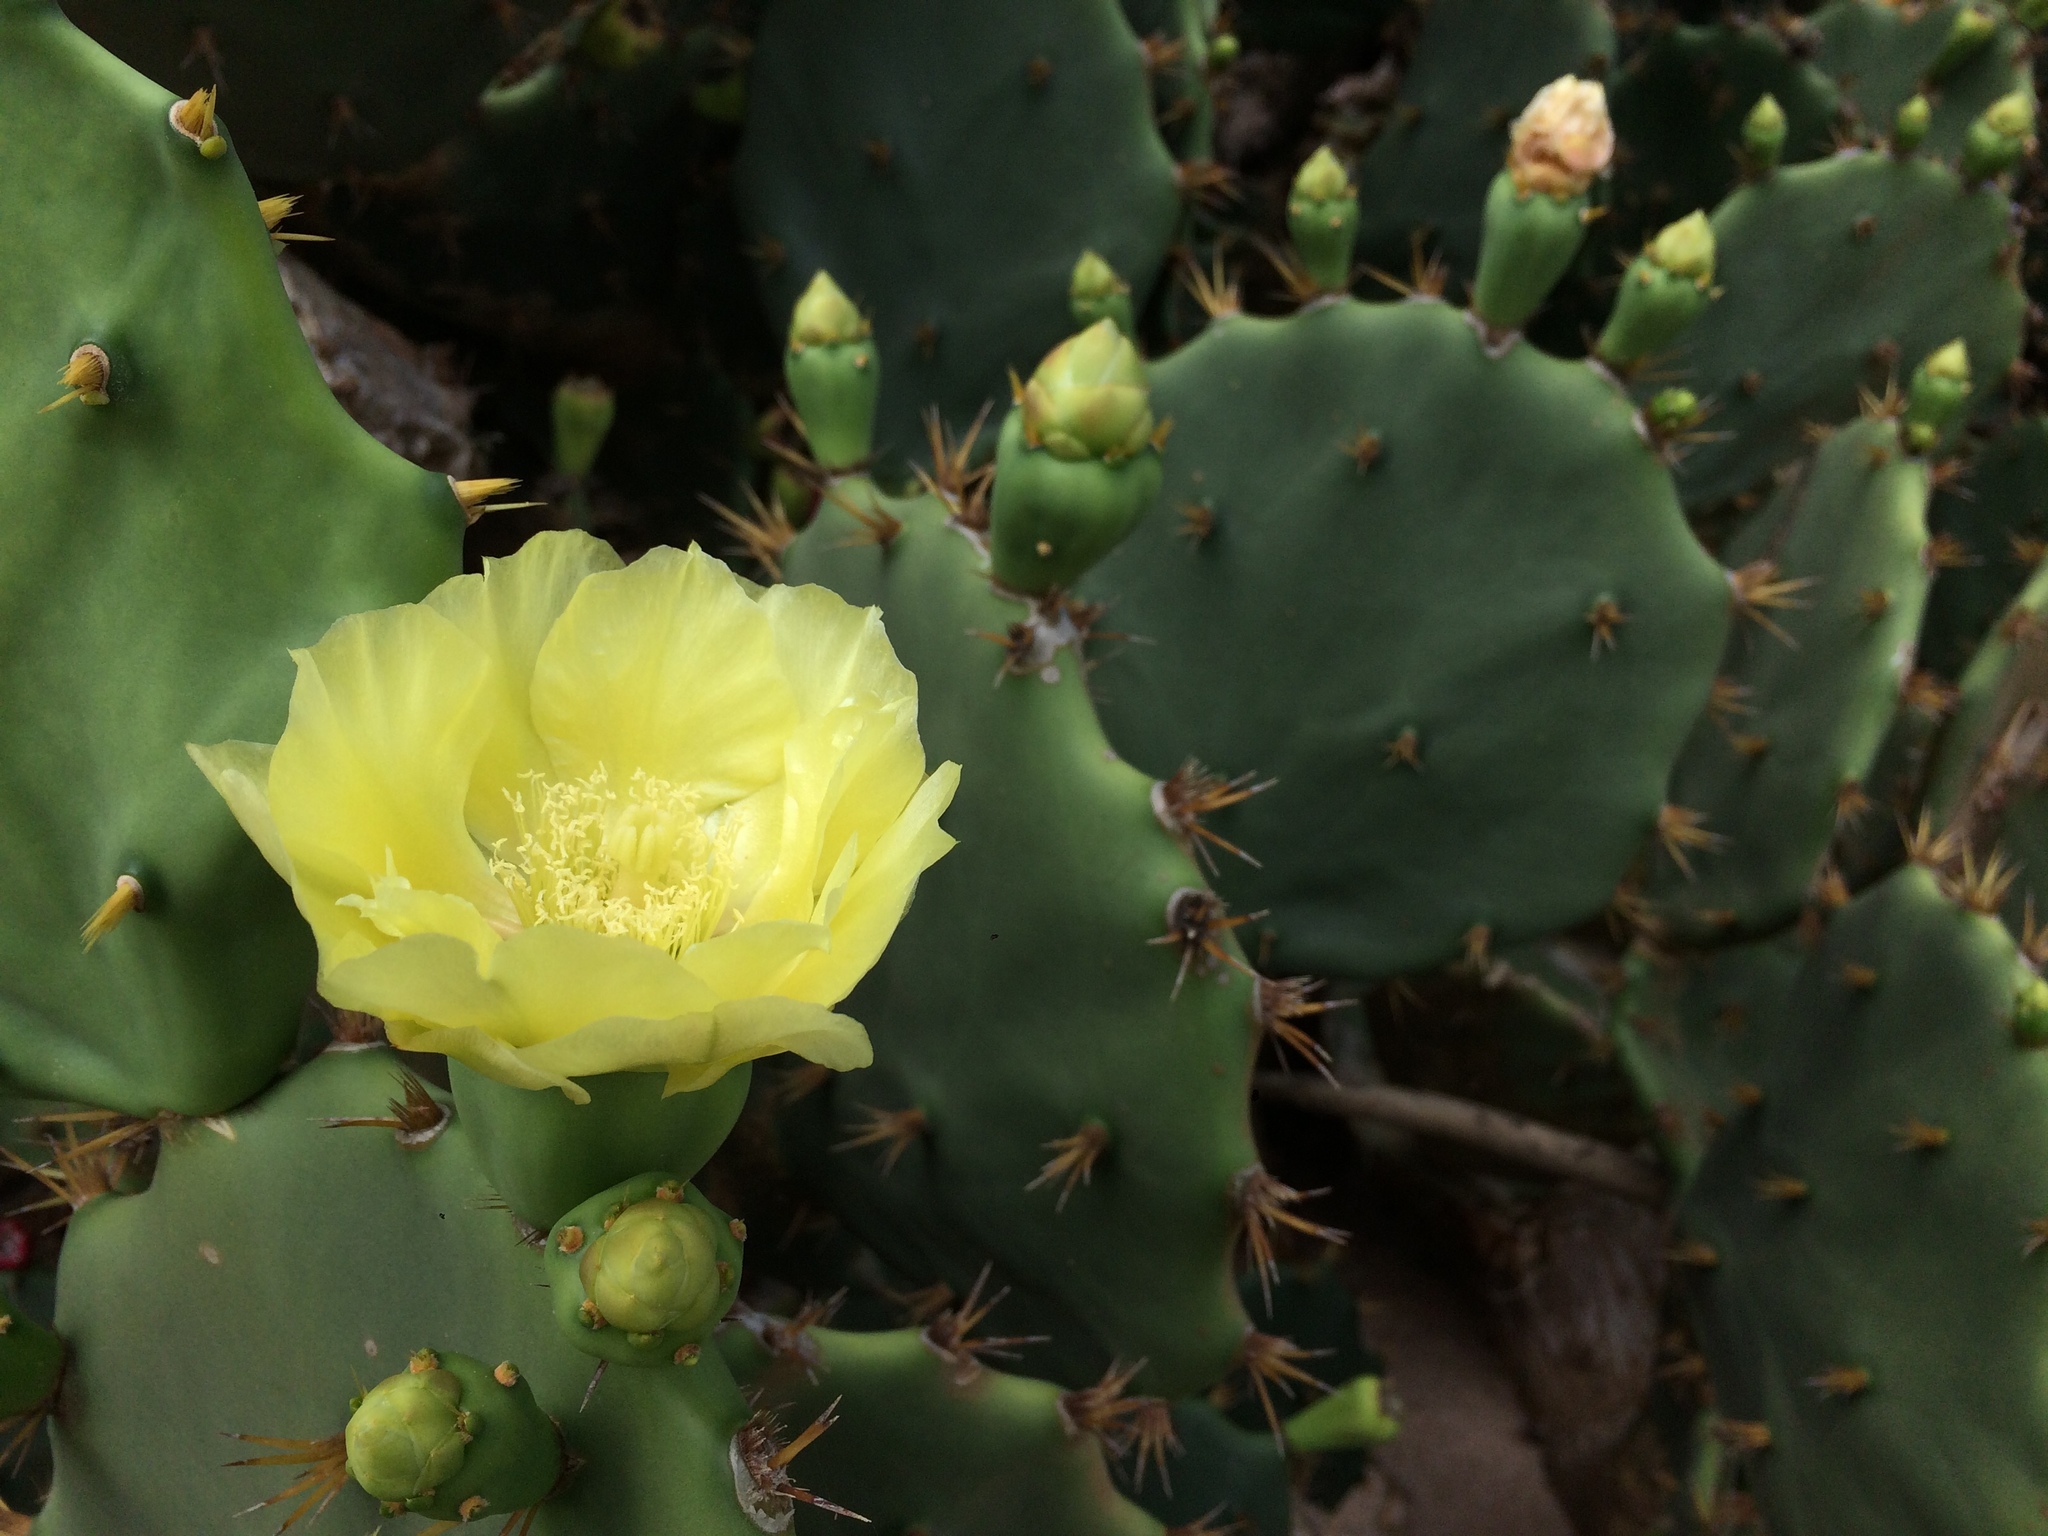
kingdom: Plantae
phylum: Tracheophyta
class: Magnoliopsida
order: Caryophyllales
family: Cactaceae
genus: Opuntia
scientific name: Opuntia dillenii
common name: Sour prickle
